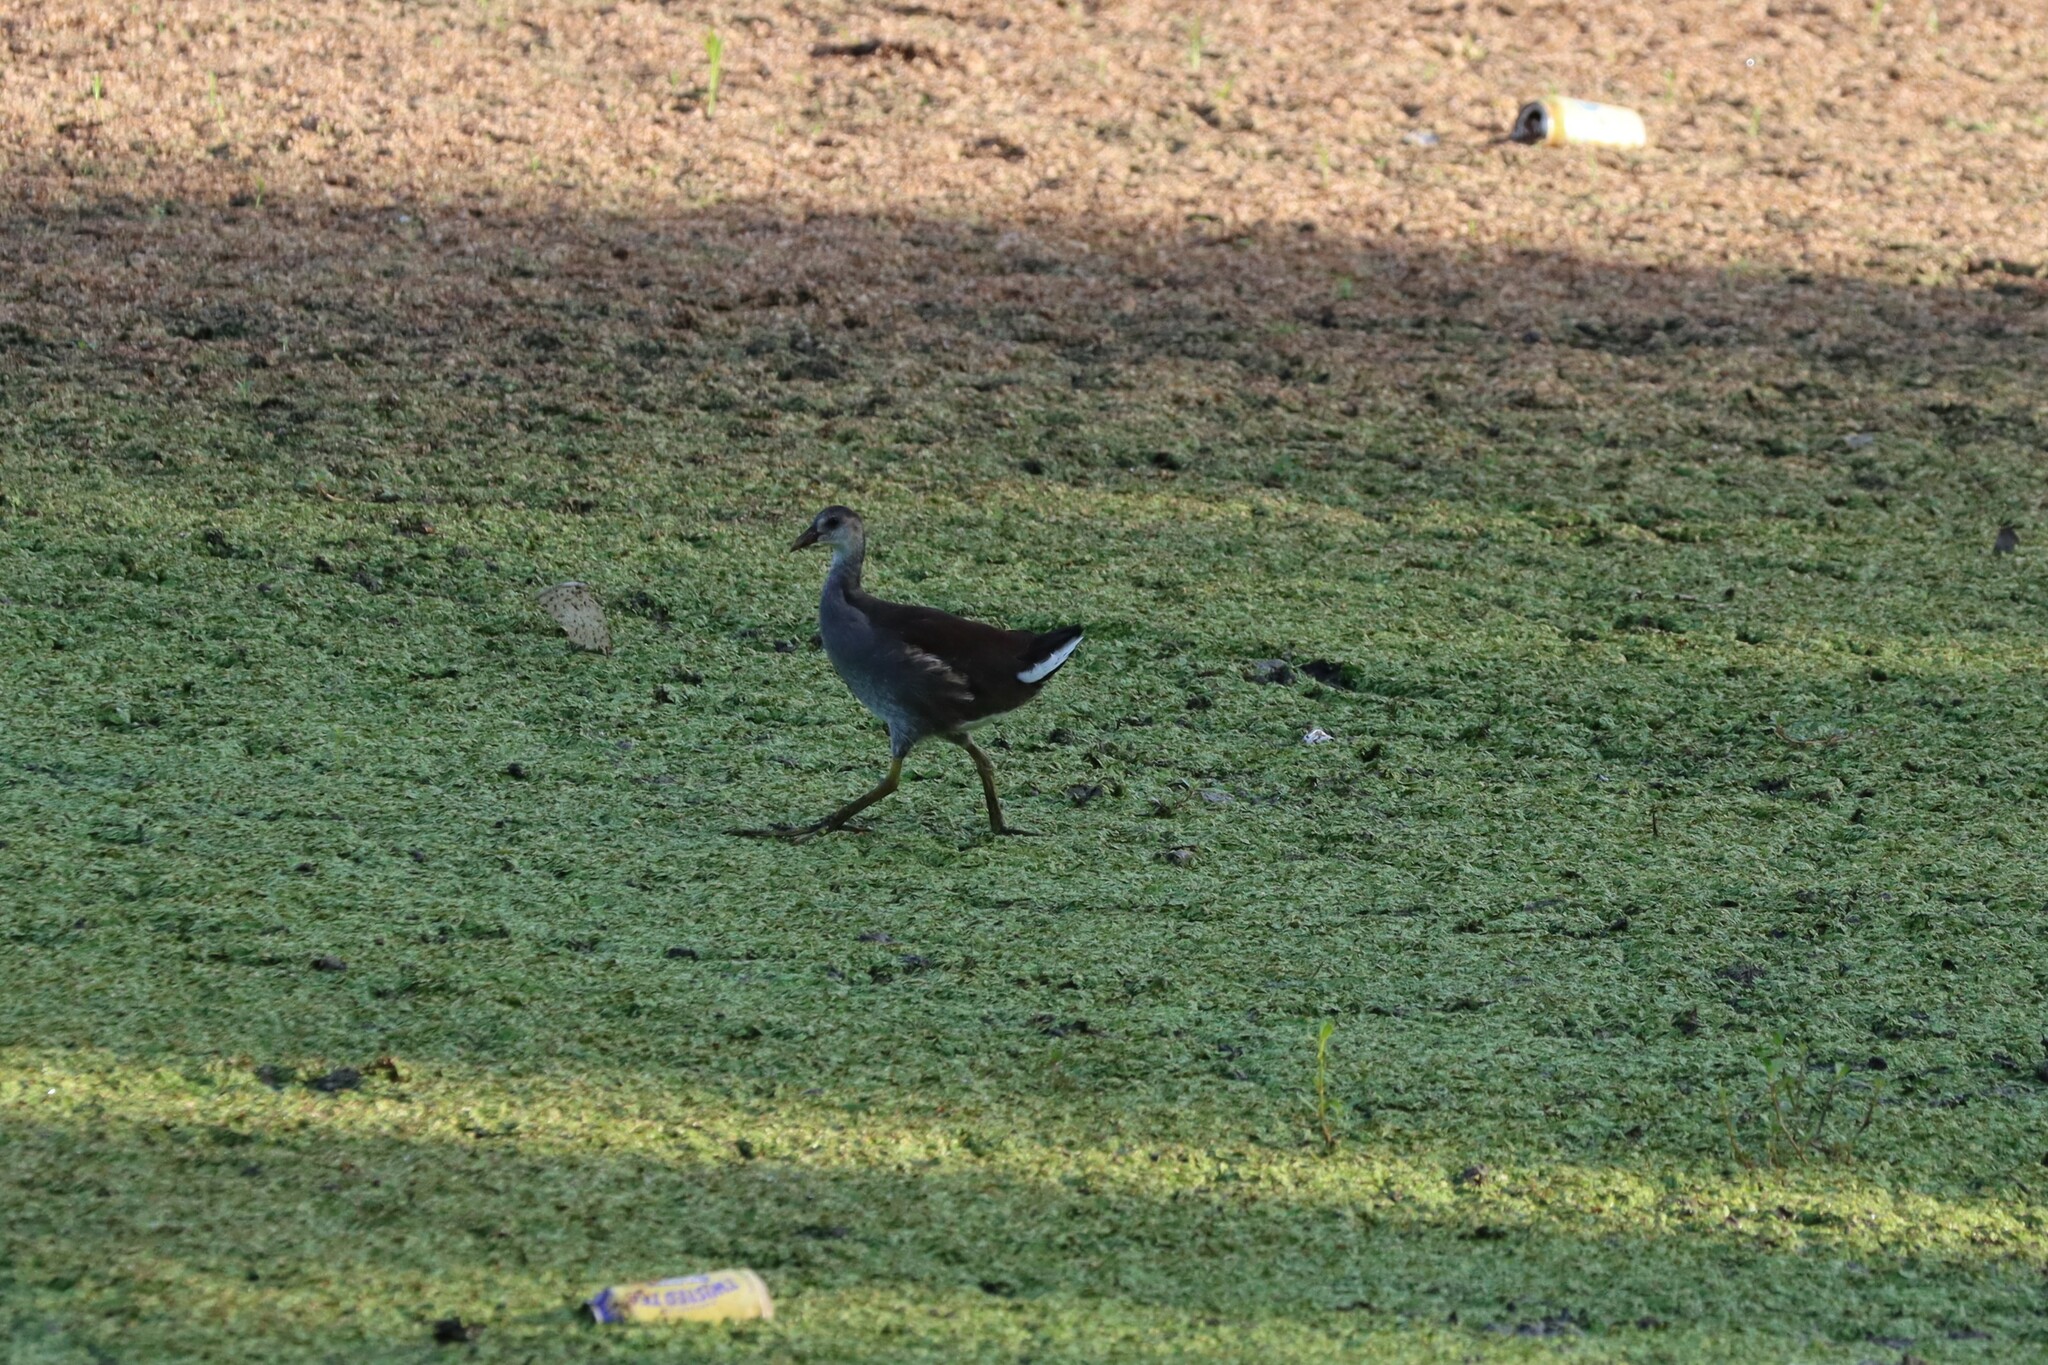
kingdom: Animalia
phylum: Chordata
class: Aves
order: Gruiformes
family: Rallidae
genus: Gallinula
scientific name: Gallinula chloropus
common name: Common moorhen
